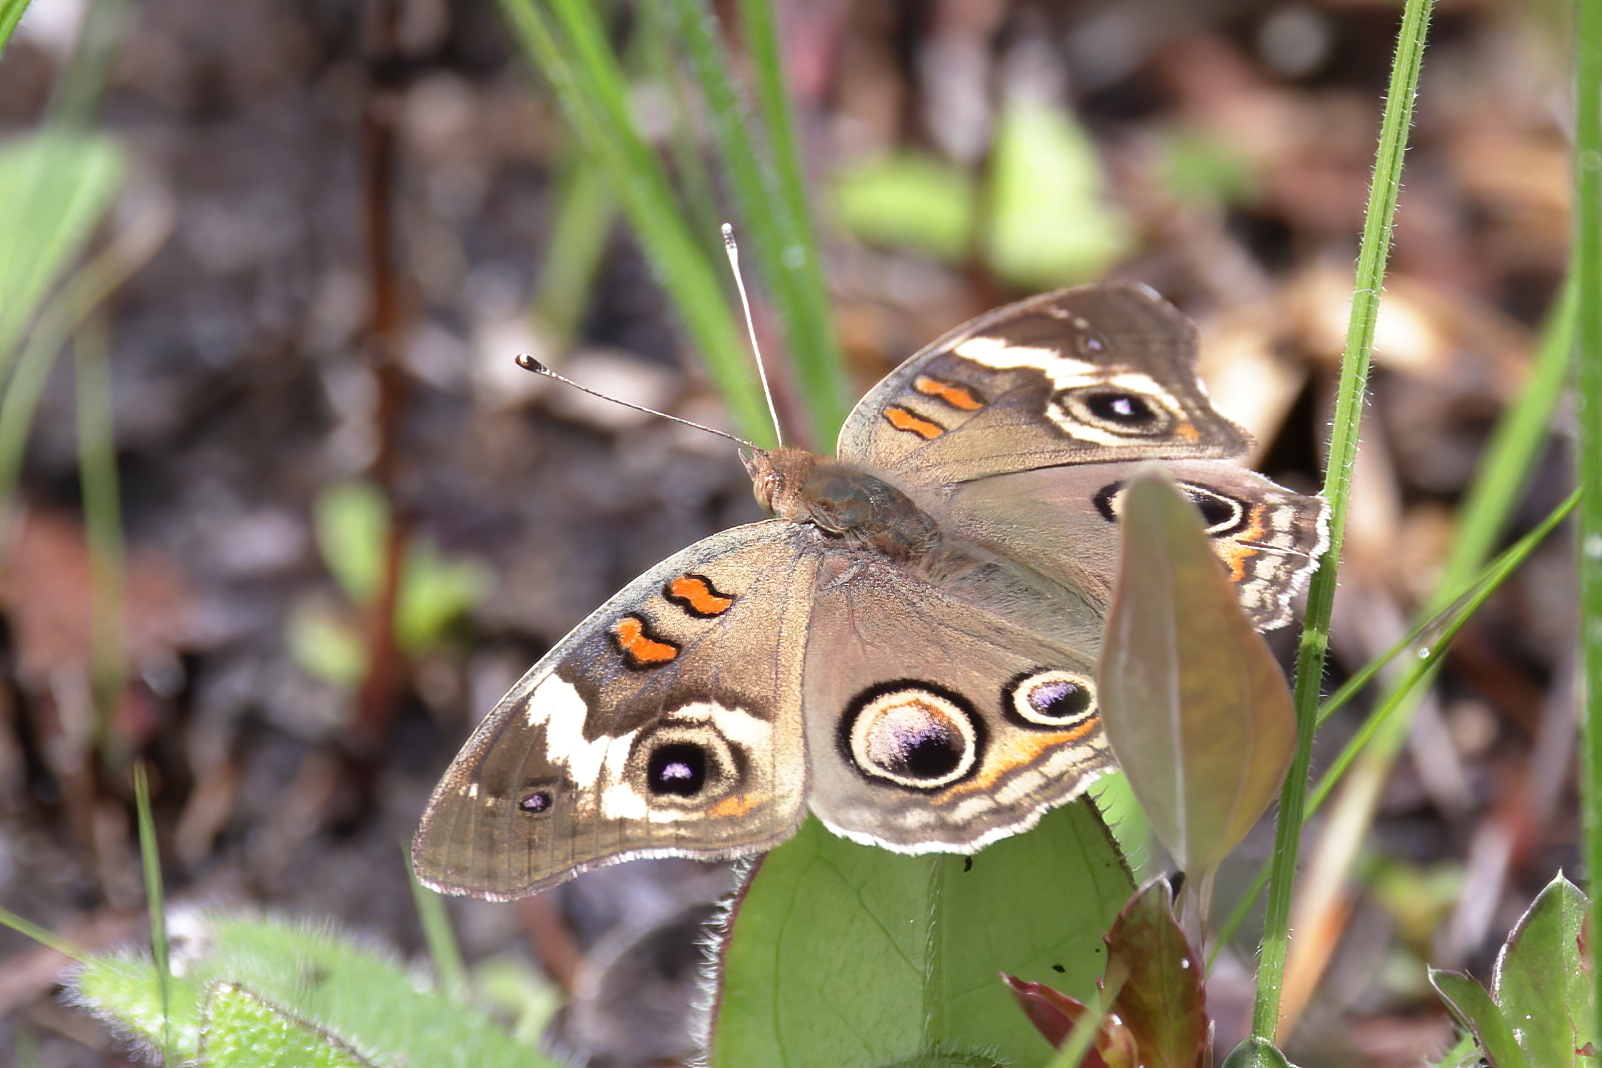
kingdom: Animalia
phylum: Arthropoda
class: Insecta
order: Lepidoptera
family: Nymphalidae
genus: Junonia
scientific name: Junonia coenia
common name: Common buckeye
